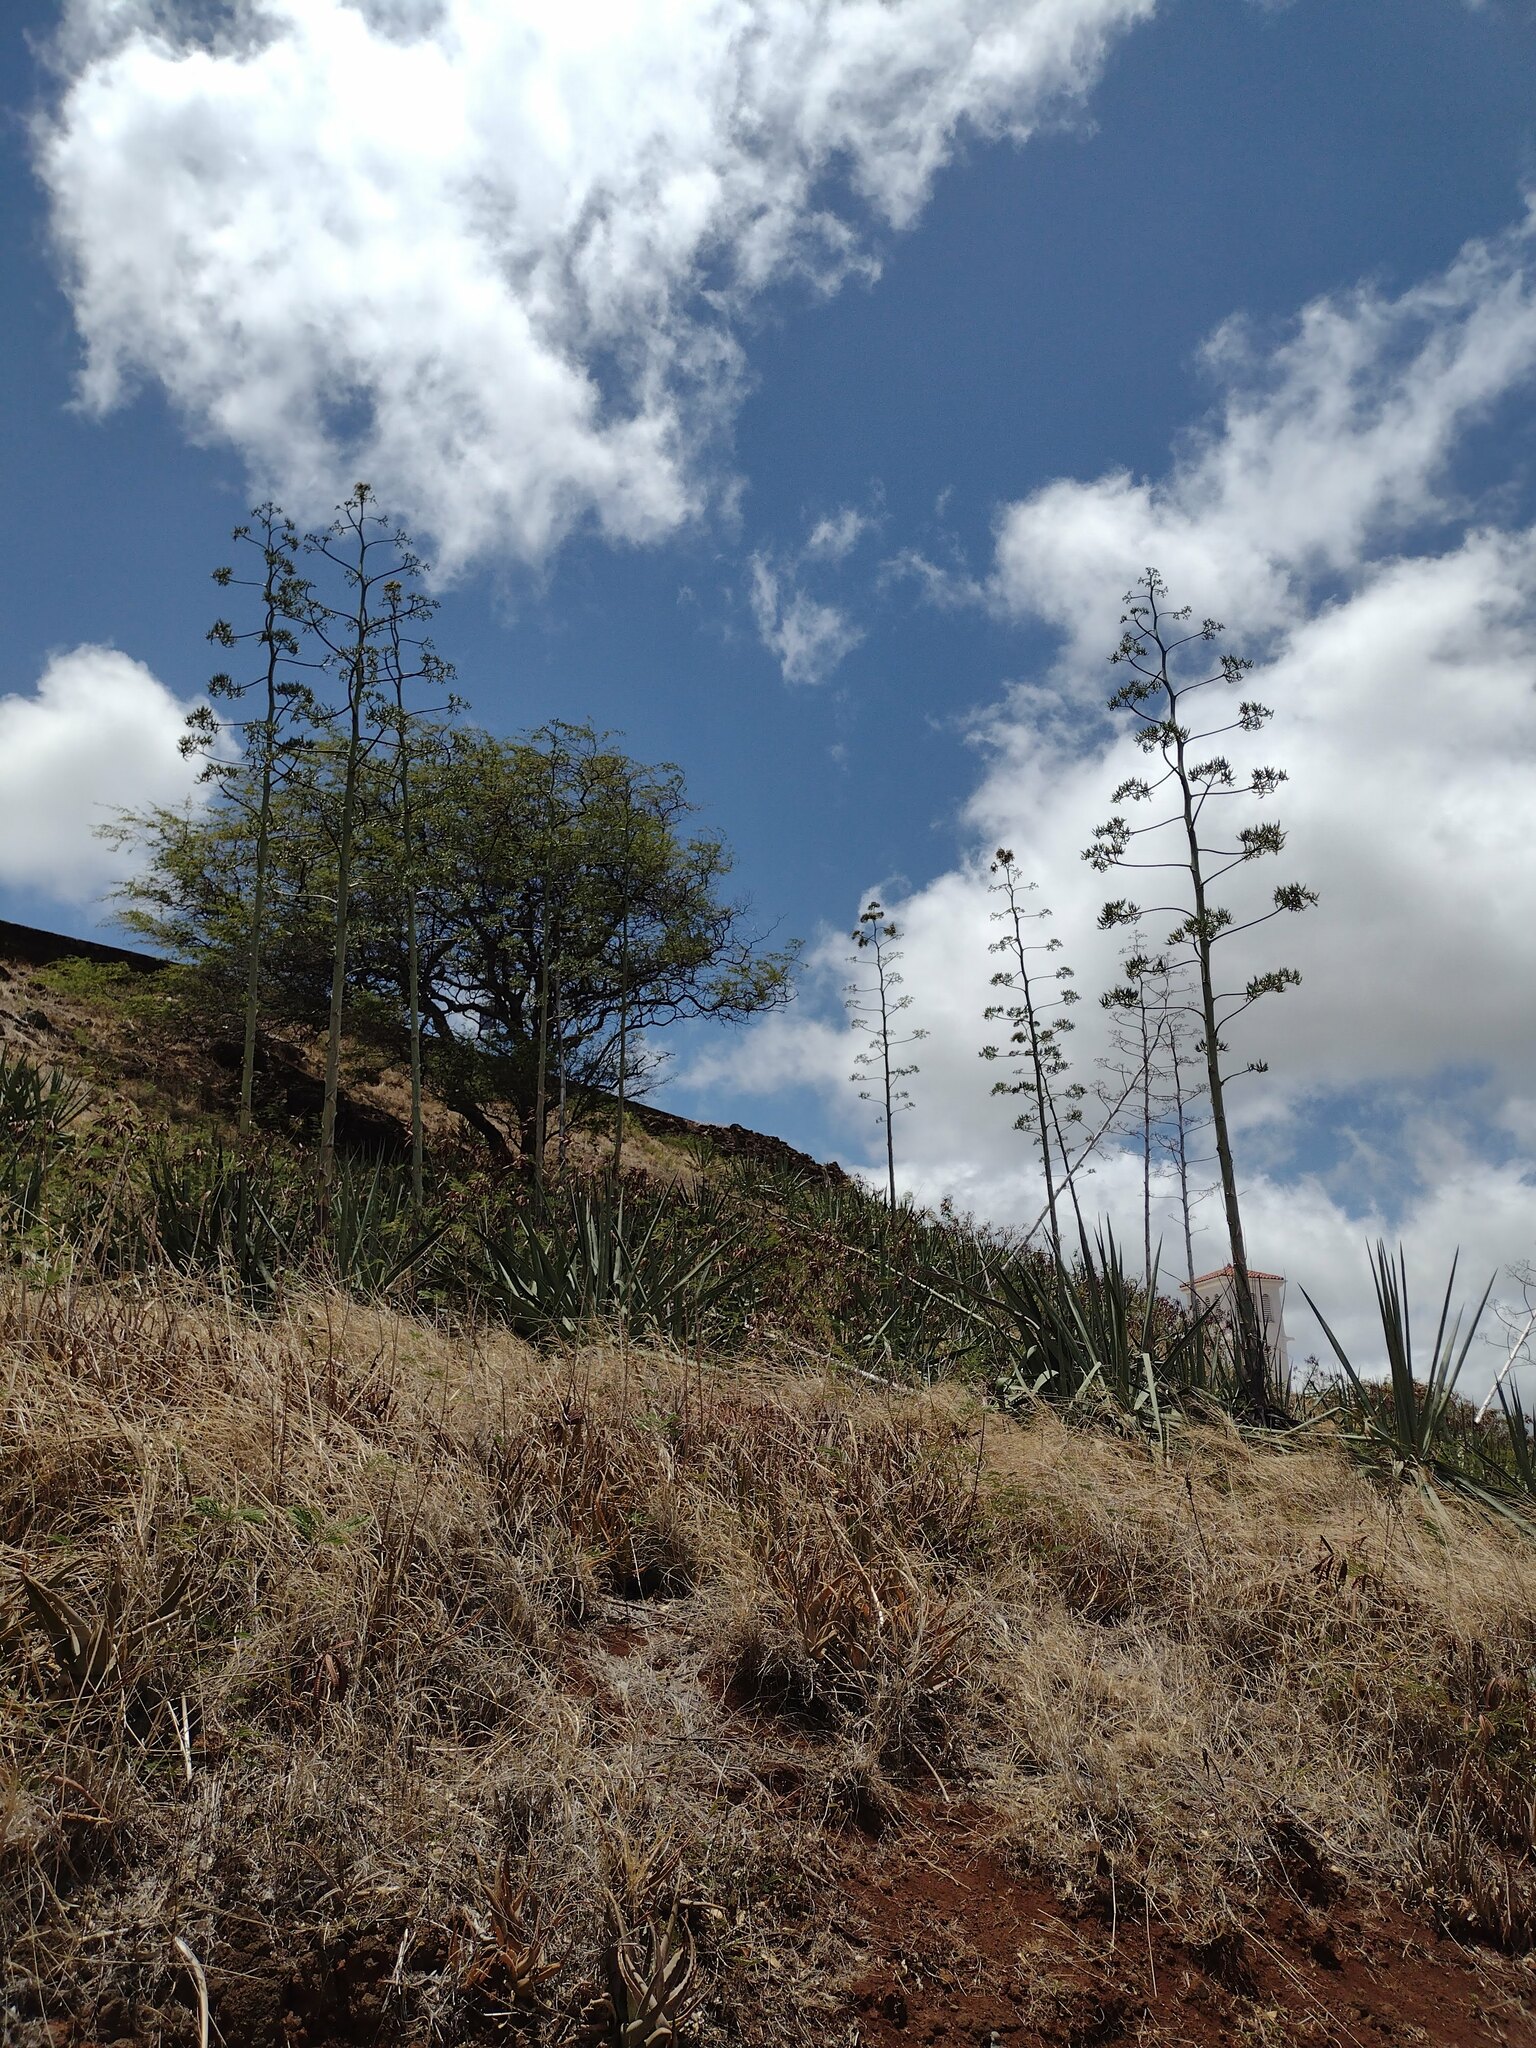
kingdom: Plantae
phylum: Tracheophyta
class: Liliopsida
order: Asparagales
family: Asparagaceae
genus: Agave
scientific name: Agave sisalana
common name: Sisal hemp
